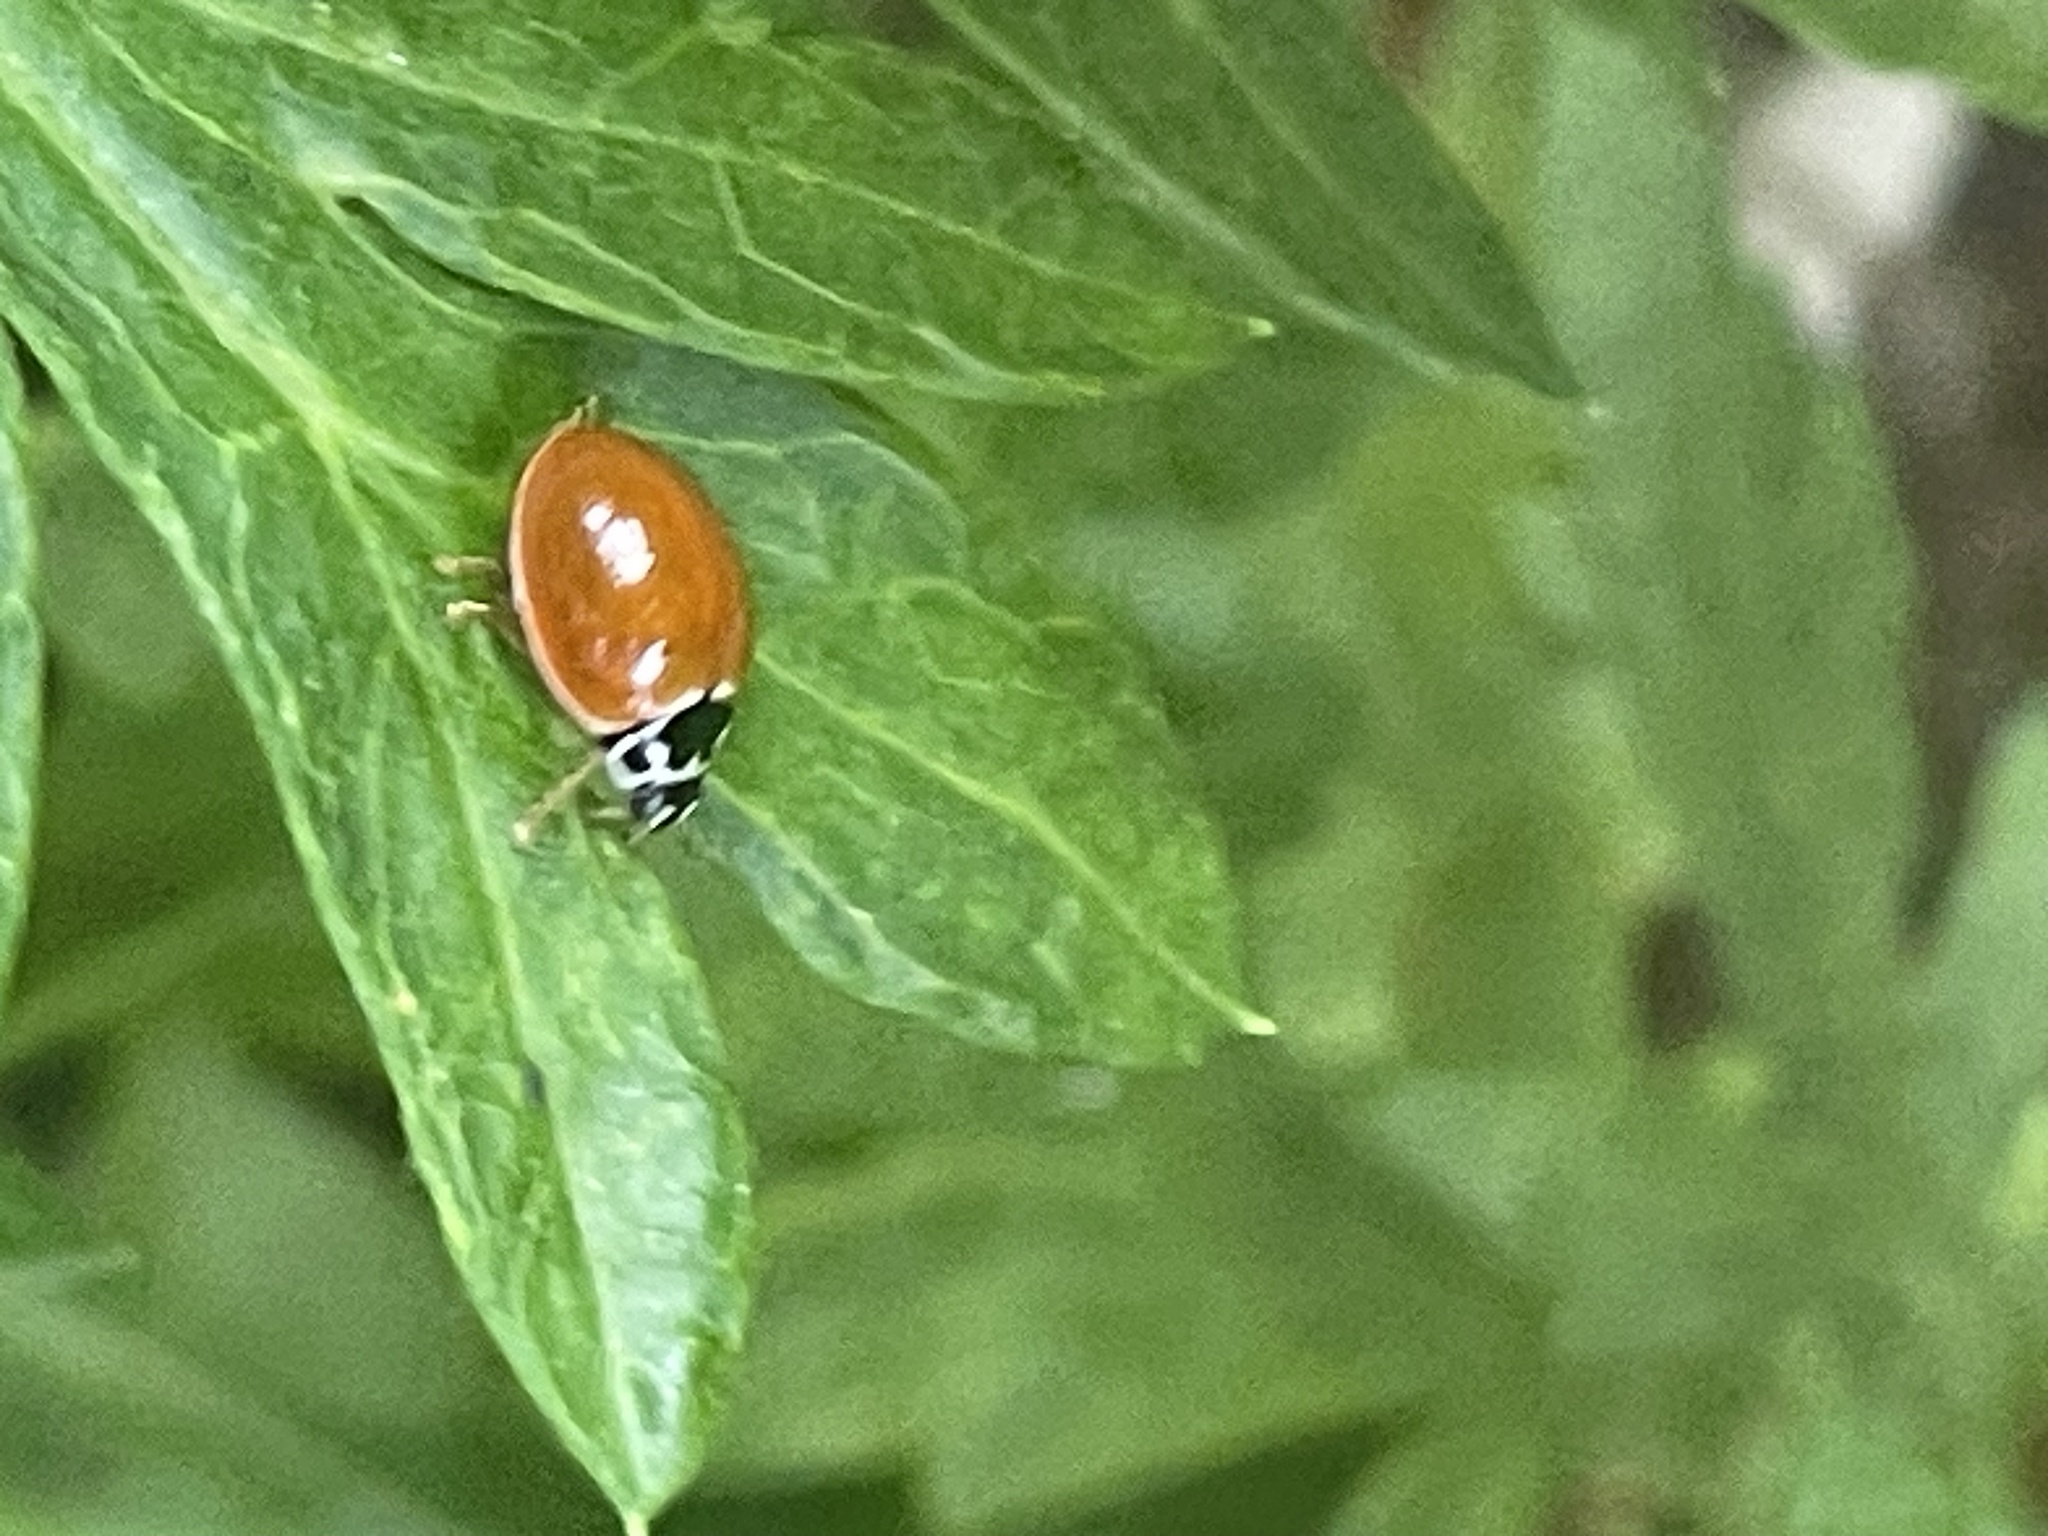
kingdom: Animalia
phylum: Arthropoda
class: Insecta
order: Coleoptera
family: Coccinellidae
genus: Cycloneda
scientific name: Cycloneda munda
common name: Polished lady beetle
